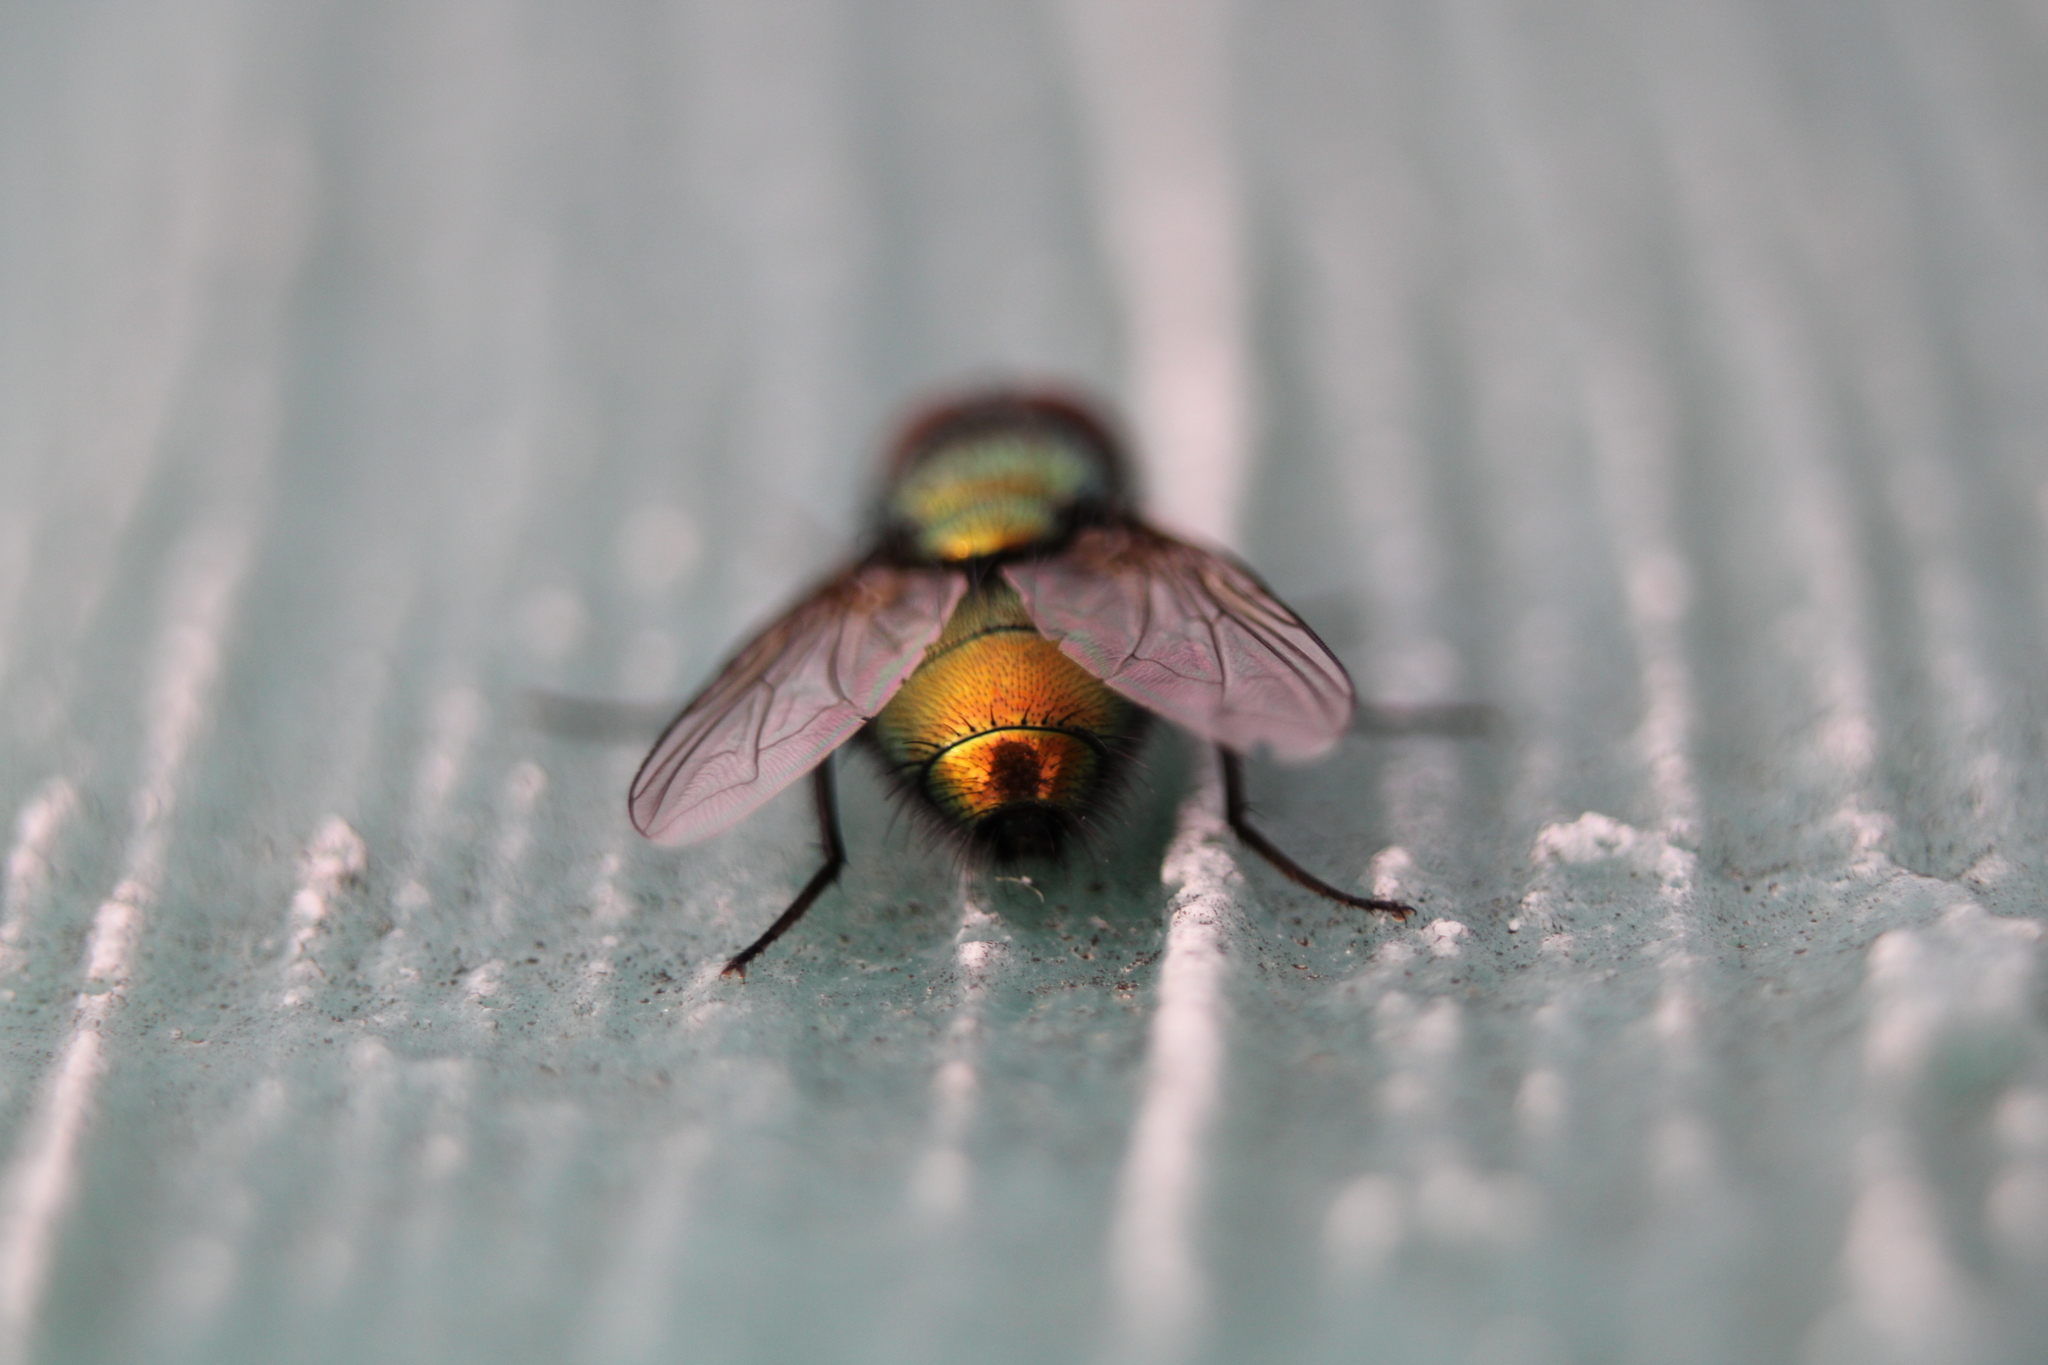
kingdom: Animalia
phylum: Arthropoda
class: Insecta
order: Diptera
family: Calliphoridae
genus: Lucilia
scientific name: Lucilia
